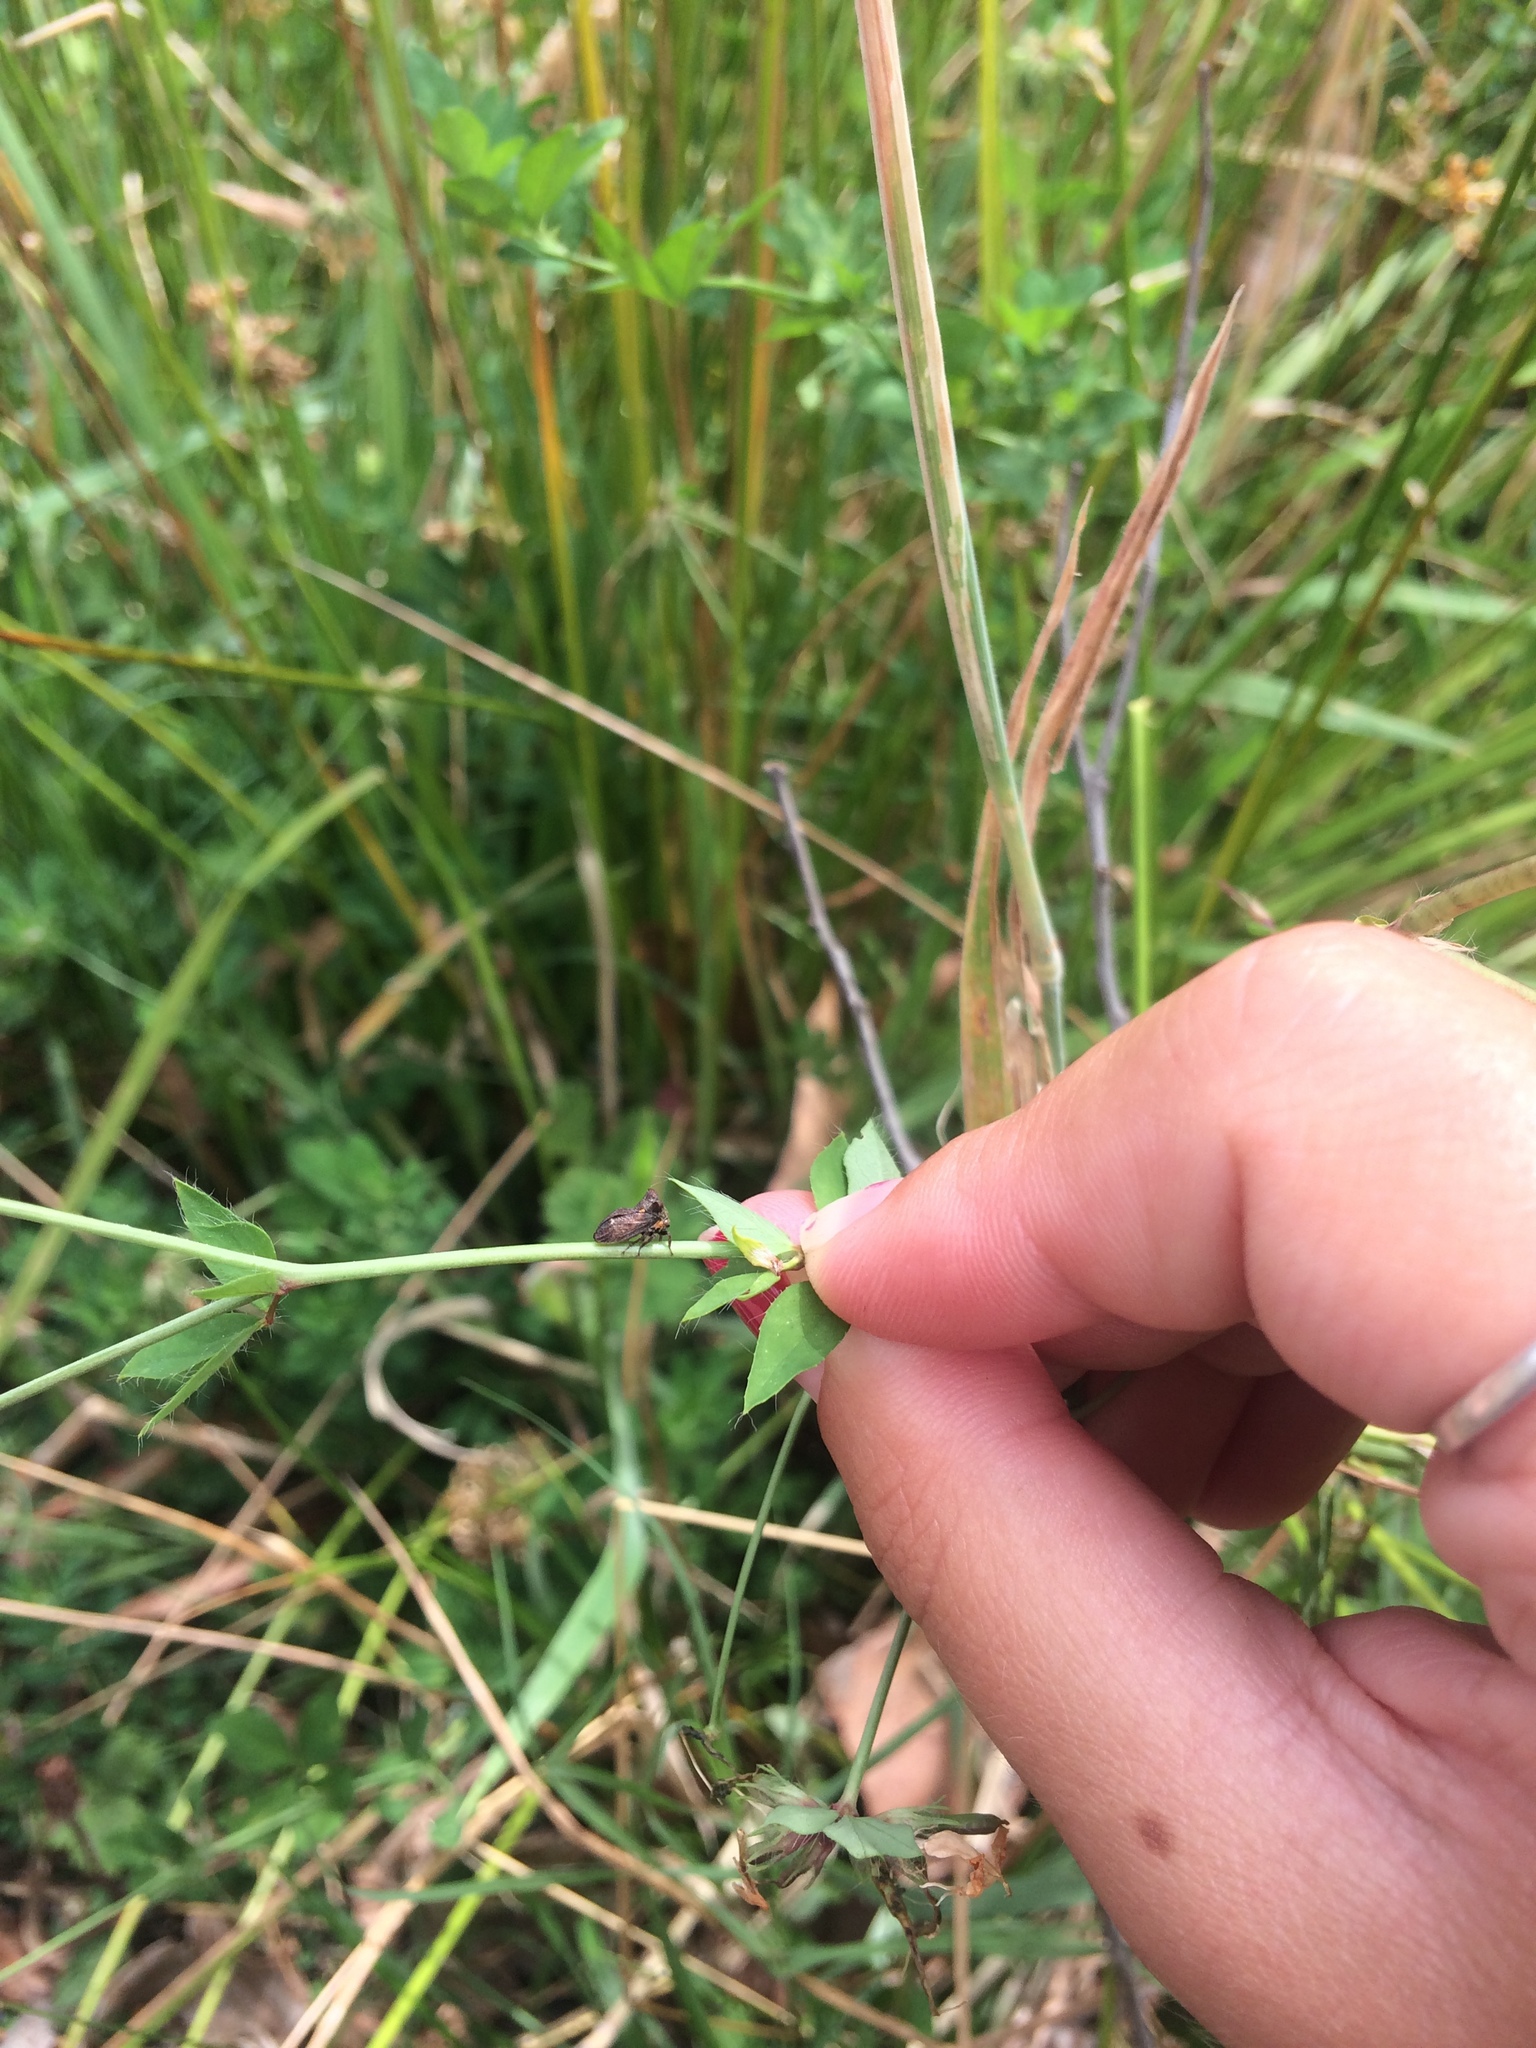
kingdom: Animalia
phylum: Arthropoda
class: Insecta
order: Hemiptera
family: Membracidae
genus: Acanthuchus
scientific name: Acanthuchus trispinifer
